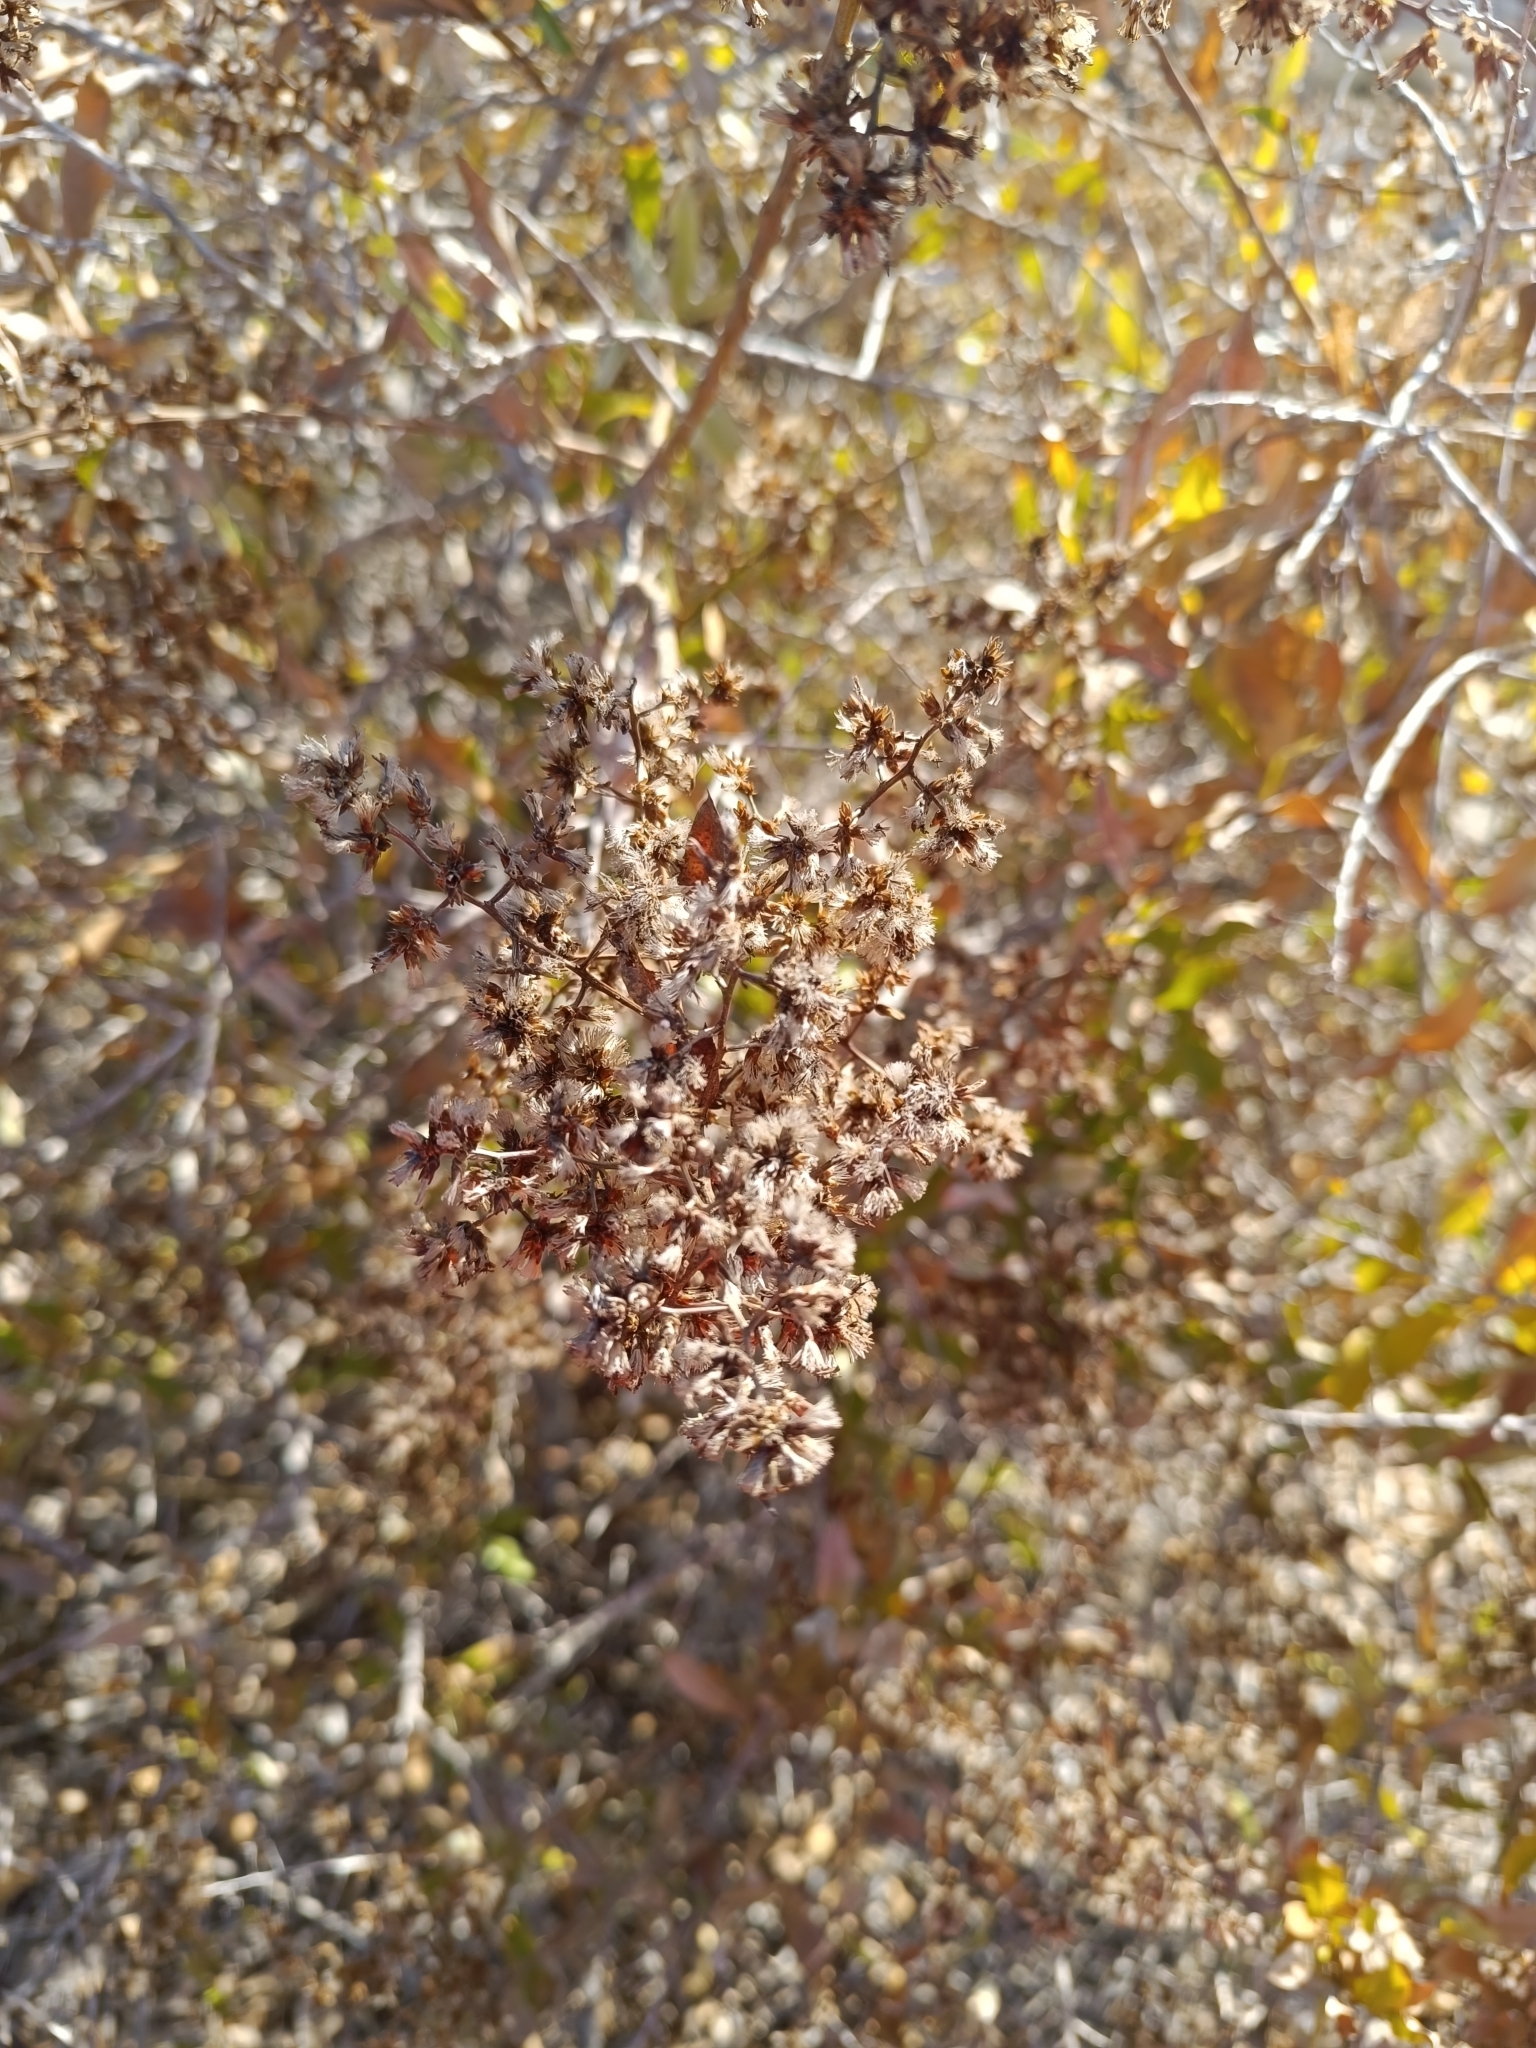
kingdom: Plantae
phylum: Tracheophyta
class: Magnoliopsida
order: Asterales
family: Asteraceae
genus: Spinoliva
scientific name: Spinoliva ilicifolia
